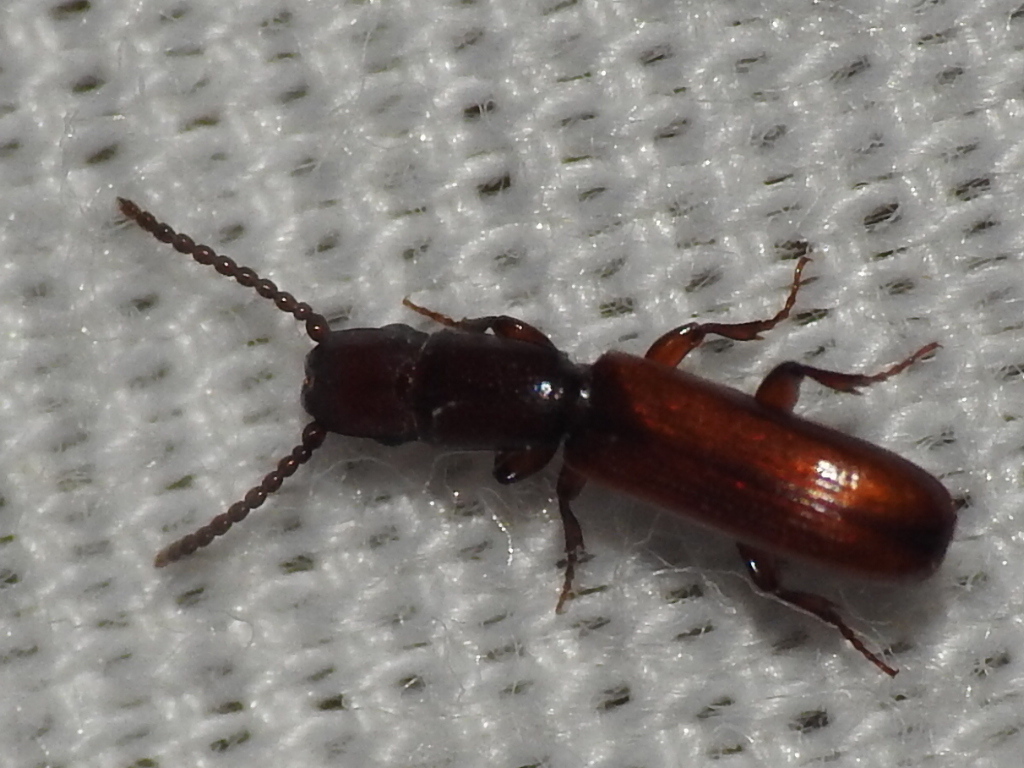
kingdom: Animalia
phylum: Arthropoda
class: Insecta
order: Coleoptera
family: Passandridae
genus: Taphroscelidia
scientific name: Taphroscelidia linearis
